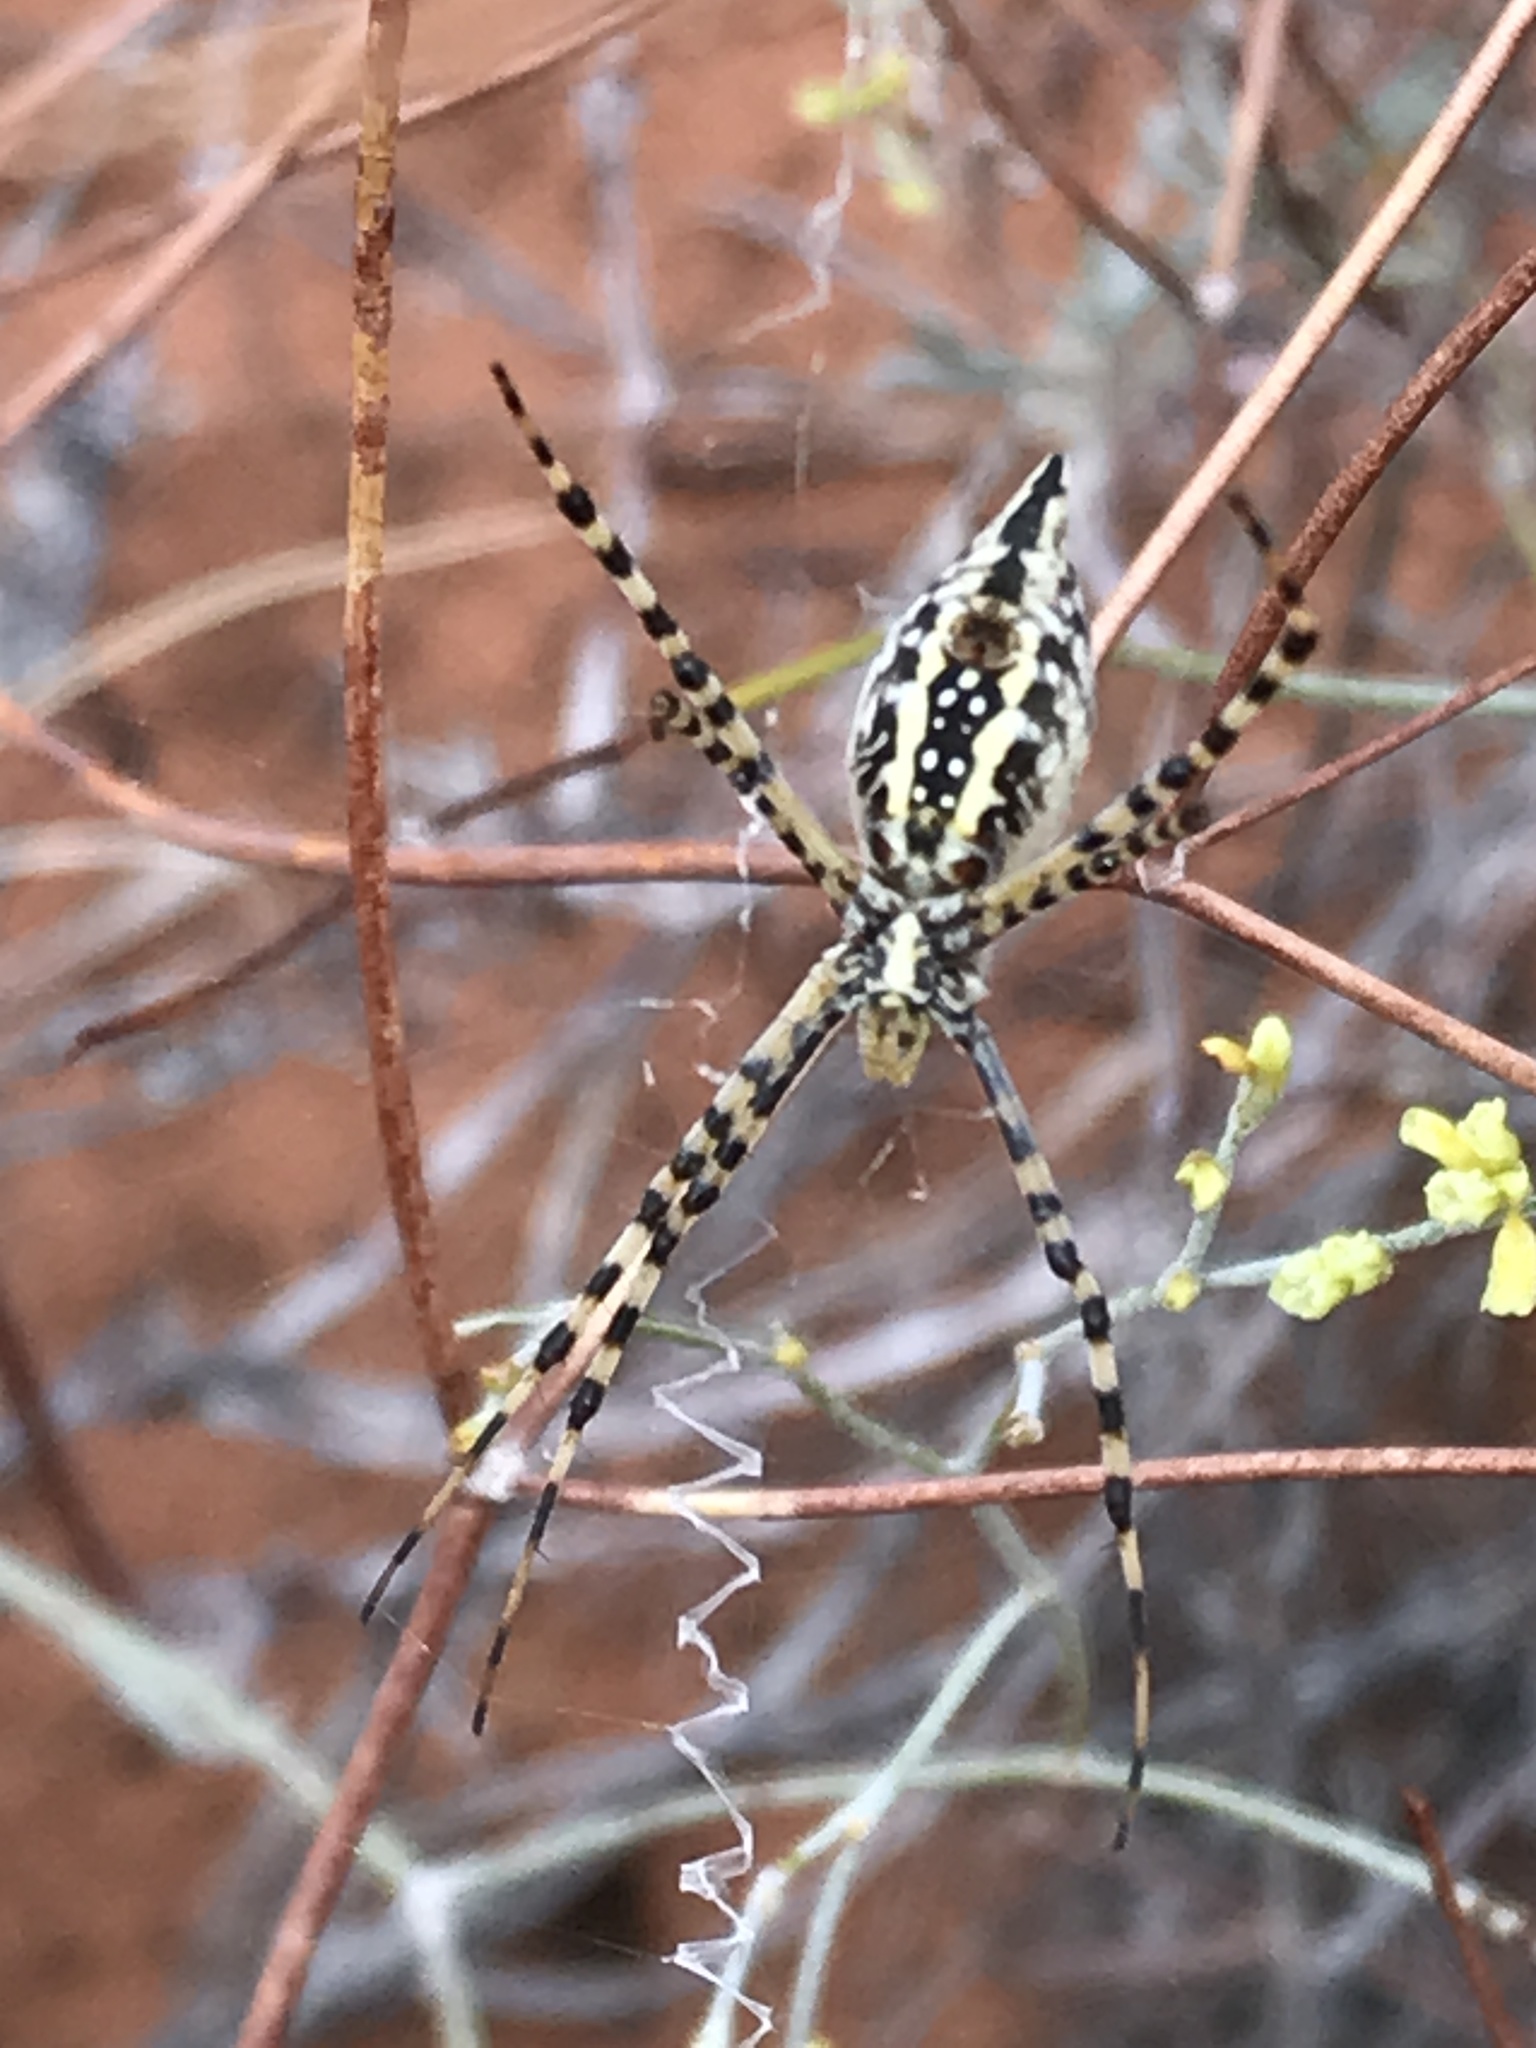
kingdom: Animalia
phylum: Arthropoda
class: Arachnida
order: Araneae
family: Araneidae
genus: Argiope
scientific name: Argiope trifasciata
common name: Banded garden spider
